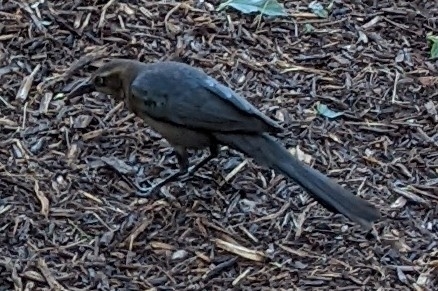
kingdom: Animalia
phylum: Chordata
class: Aves
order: Passeriformes
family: Icteridae
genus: Quiscalus
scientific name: Quiscalus mexicanus
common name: Great-tailed grackle
